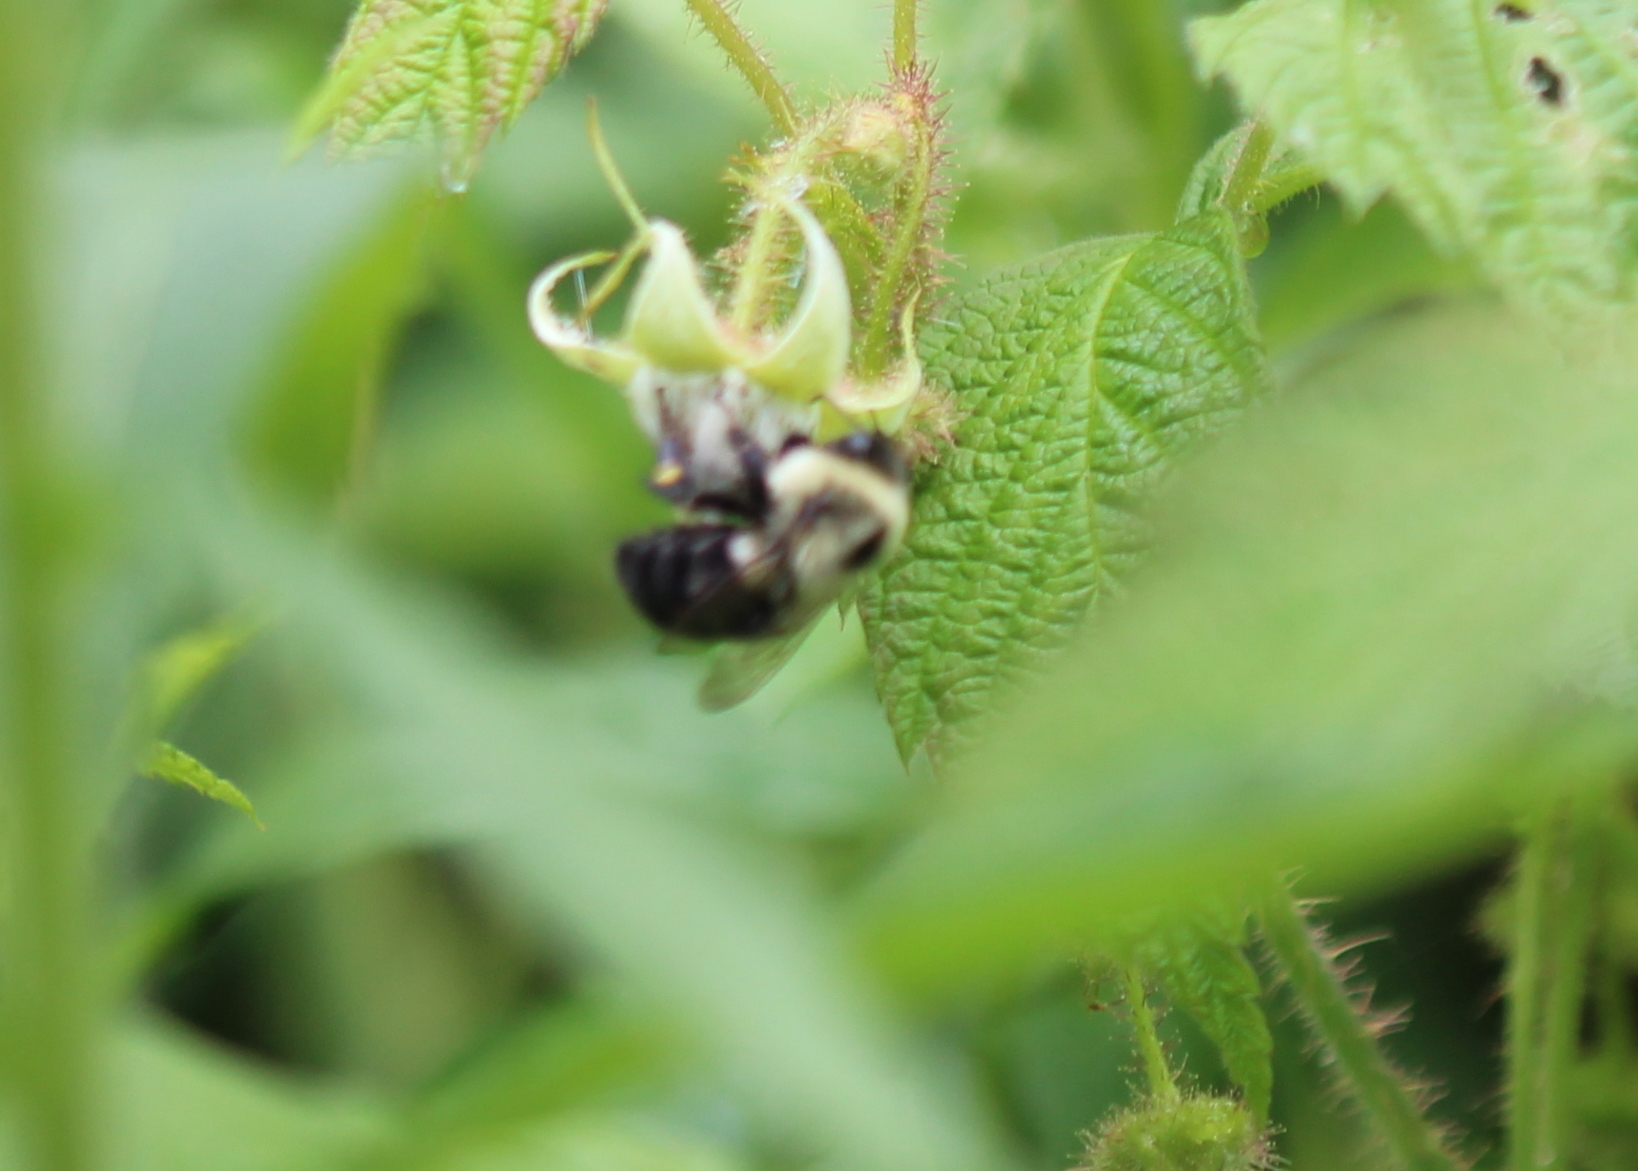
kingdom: Animalia
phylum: Arthropoda
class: Insecta
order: Hymenoptera
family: Apidae
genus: Bombus
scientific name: Bombus impatiens
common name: Common eastern bumble bee
